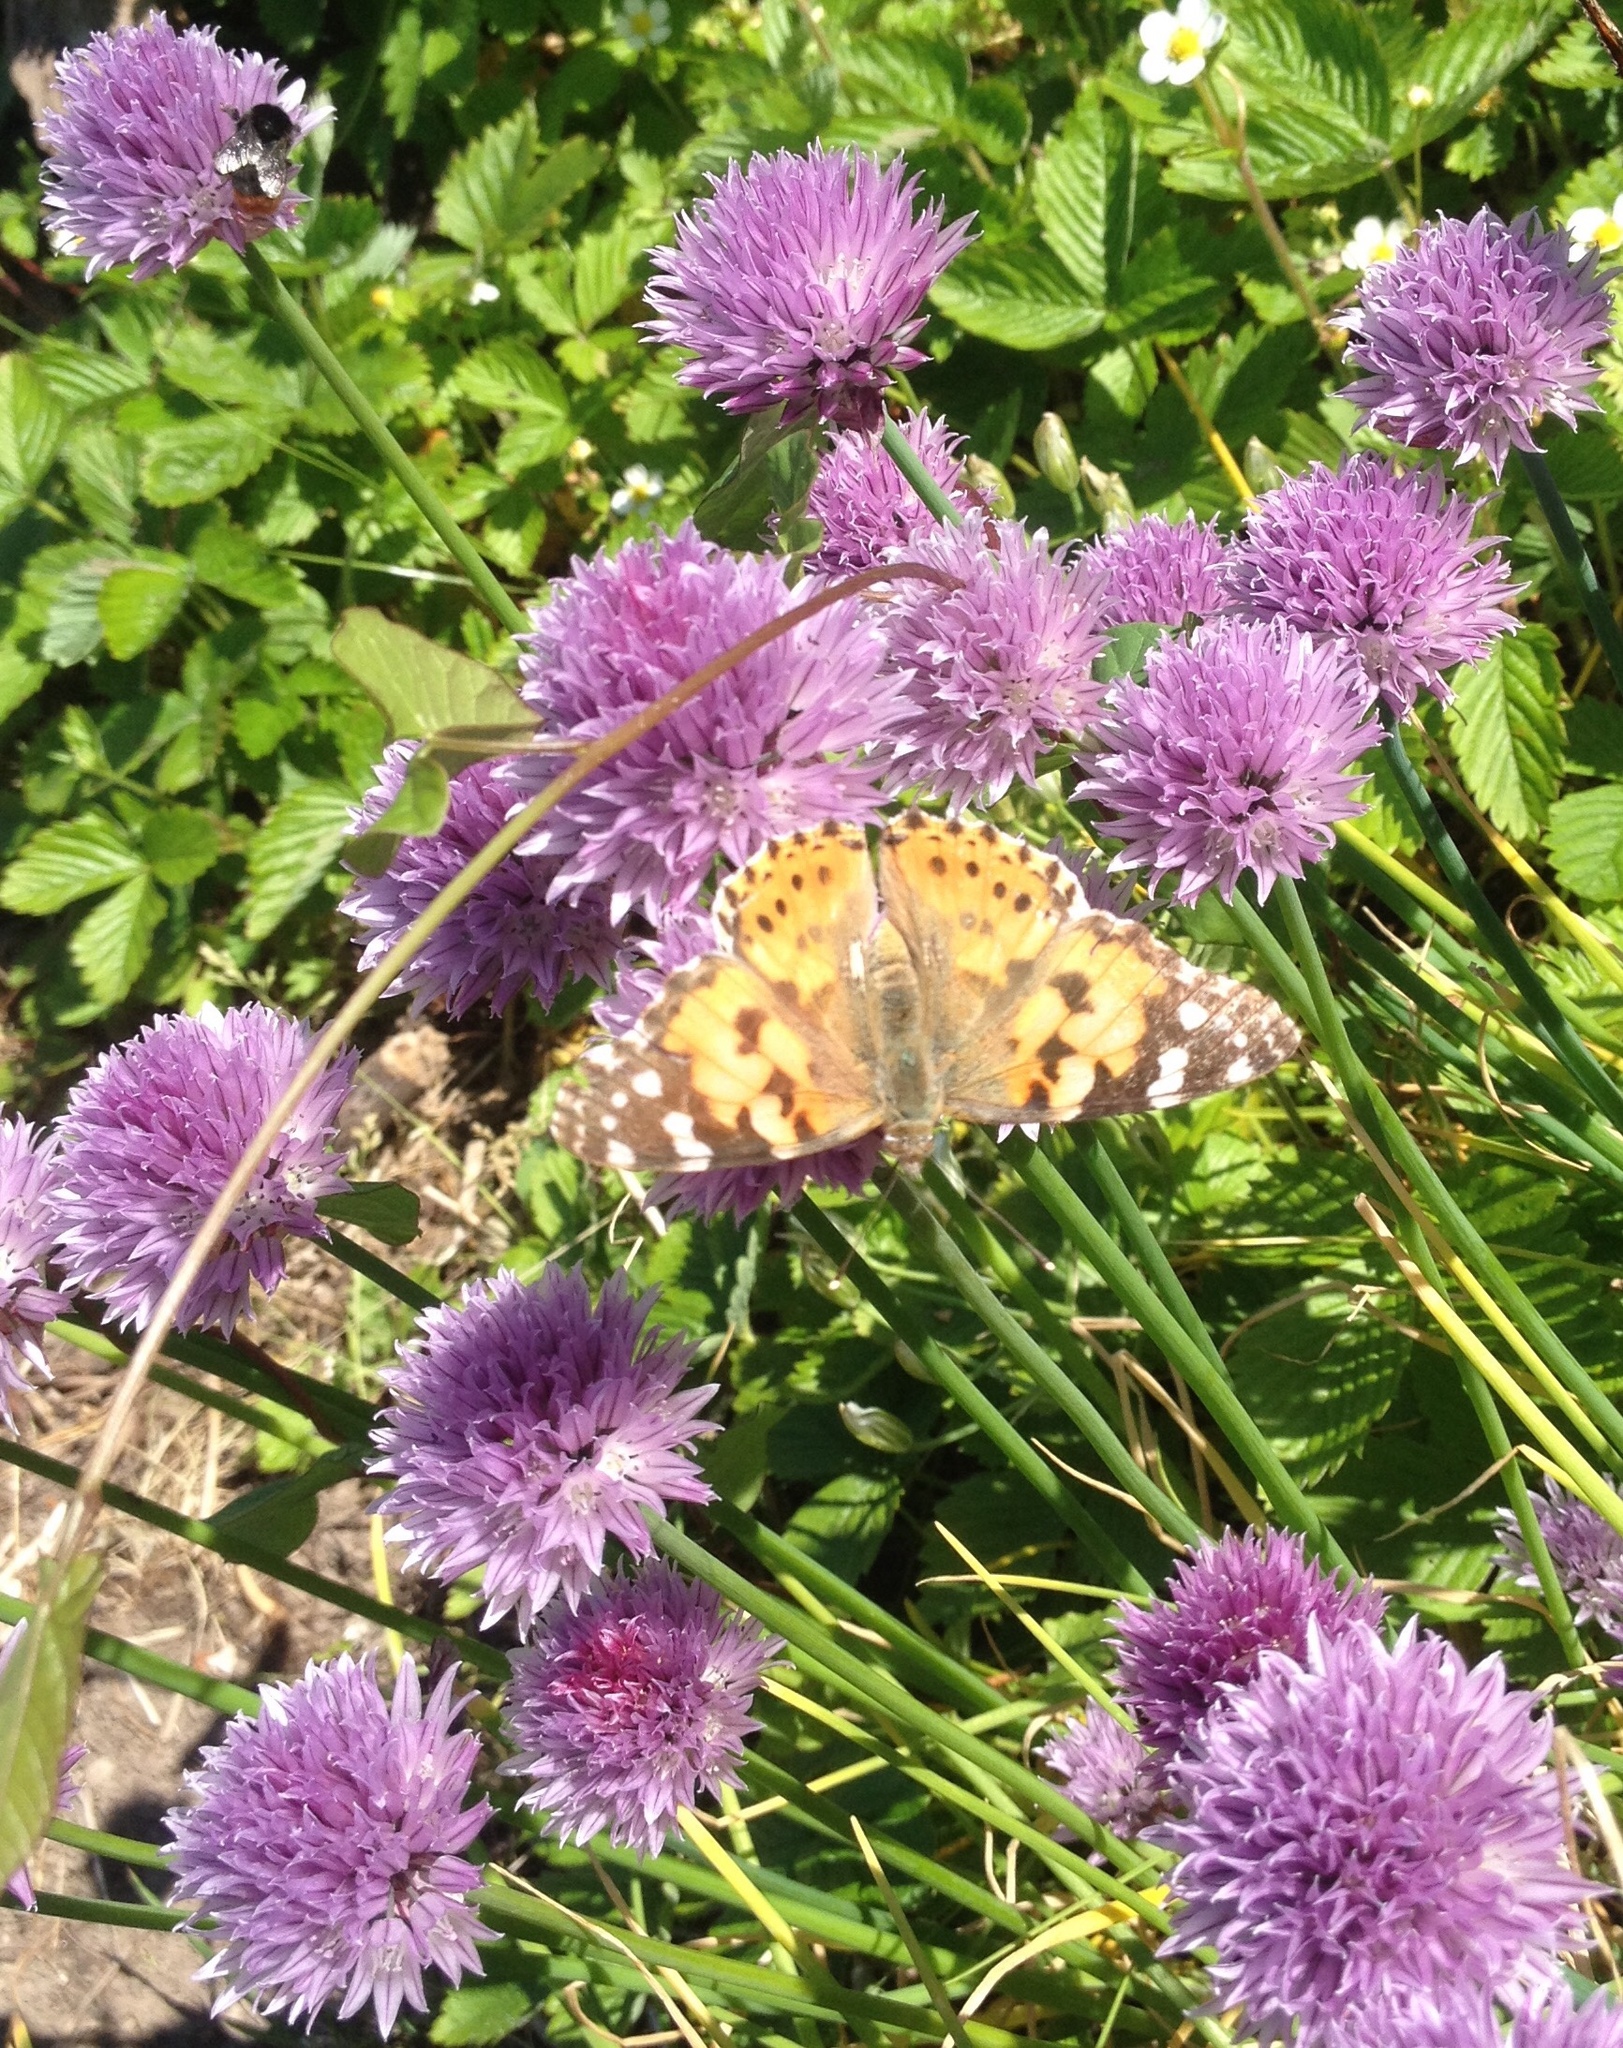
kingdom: Animalia
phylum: Arthropoda
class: Insecta
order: Lepidoptera
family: Nymphalidae
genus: Vanessa
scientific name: Vanessa cardui
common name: Painted lady
